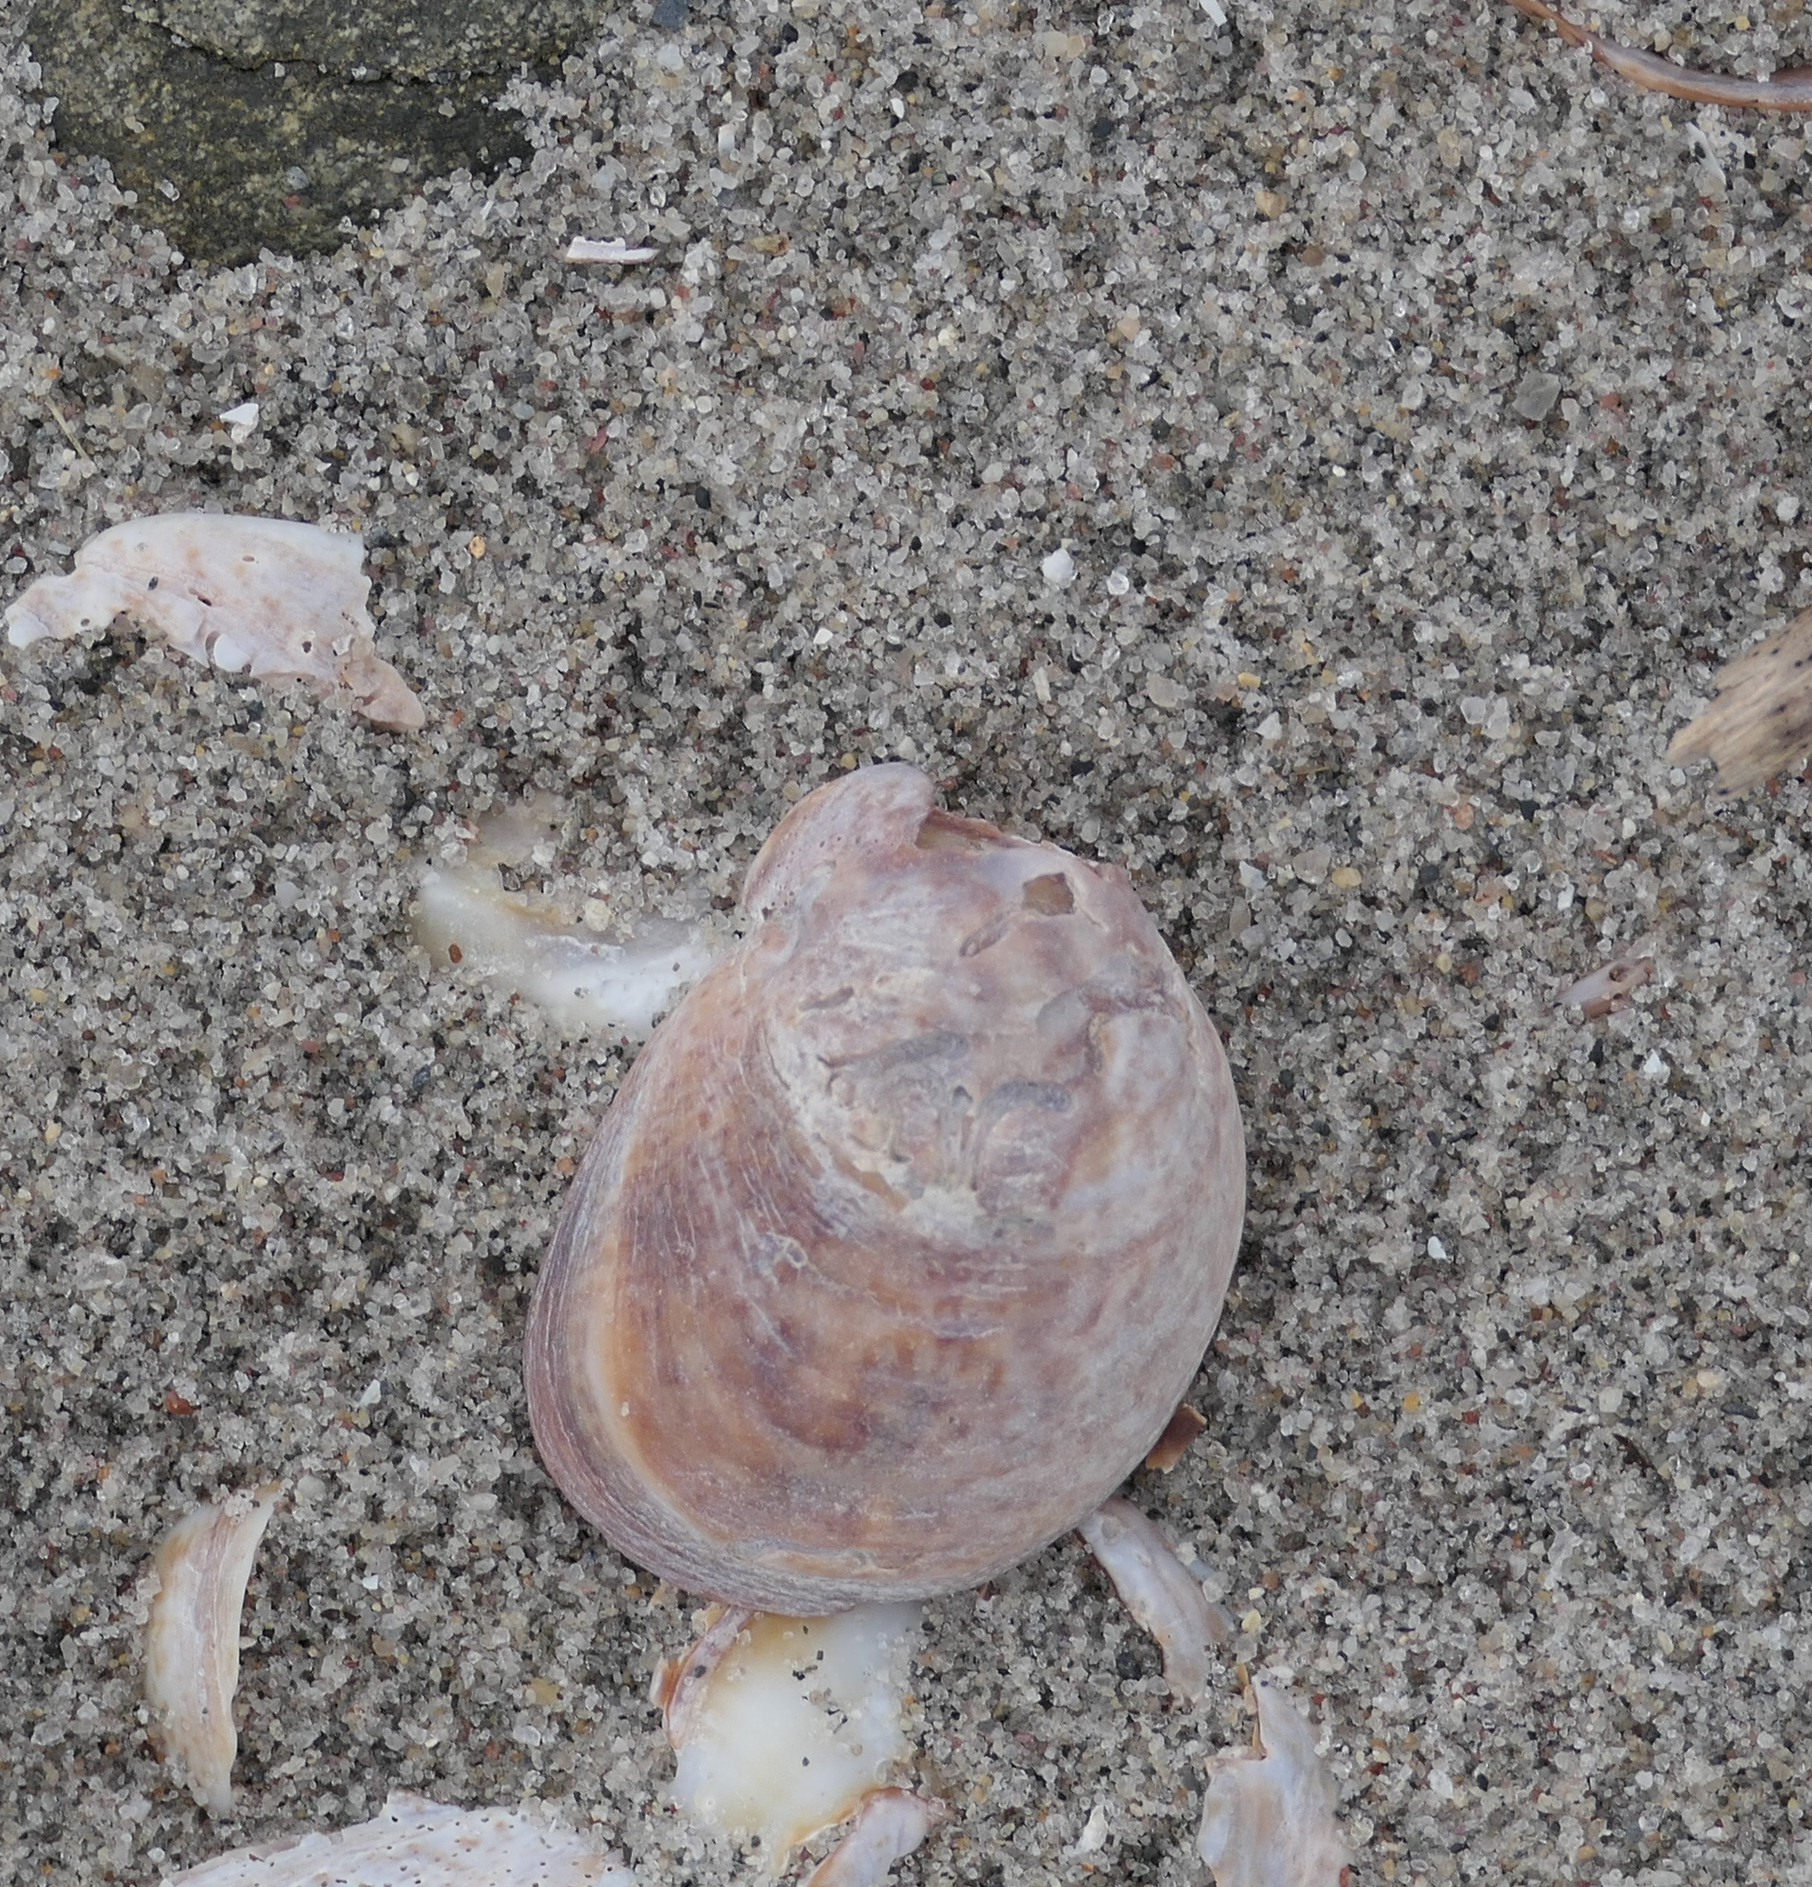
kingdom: Animalia
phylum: Mollusca
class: Gastropoda
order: Littorinimorpha
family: Calyptraeidae
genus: Crepidula
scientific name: Crepidula fornicata
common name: Slipper limpet
